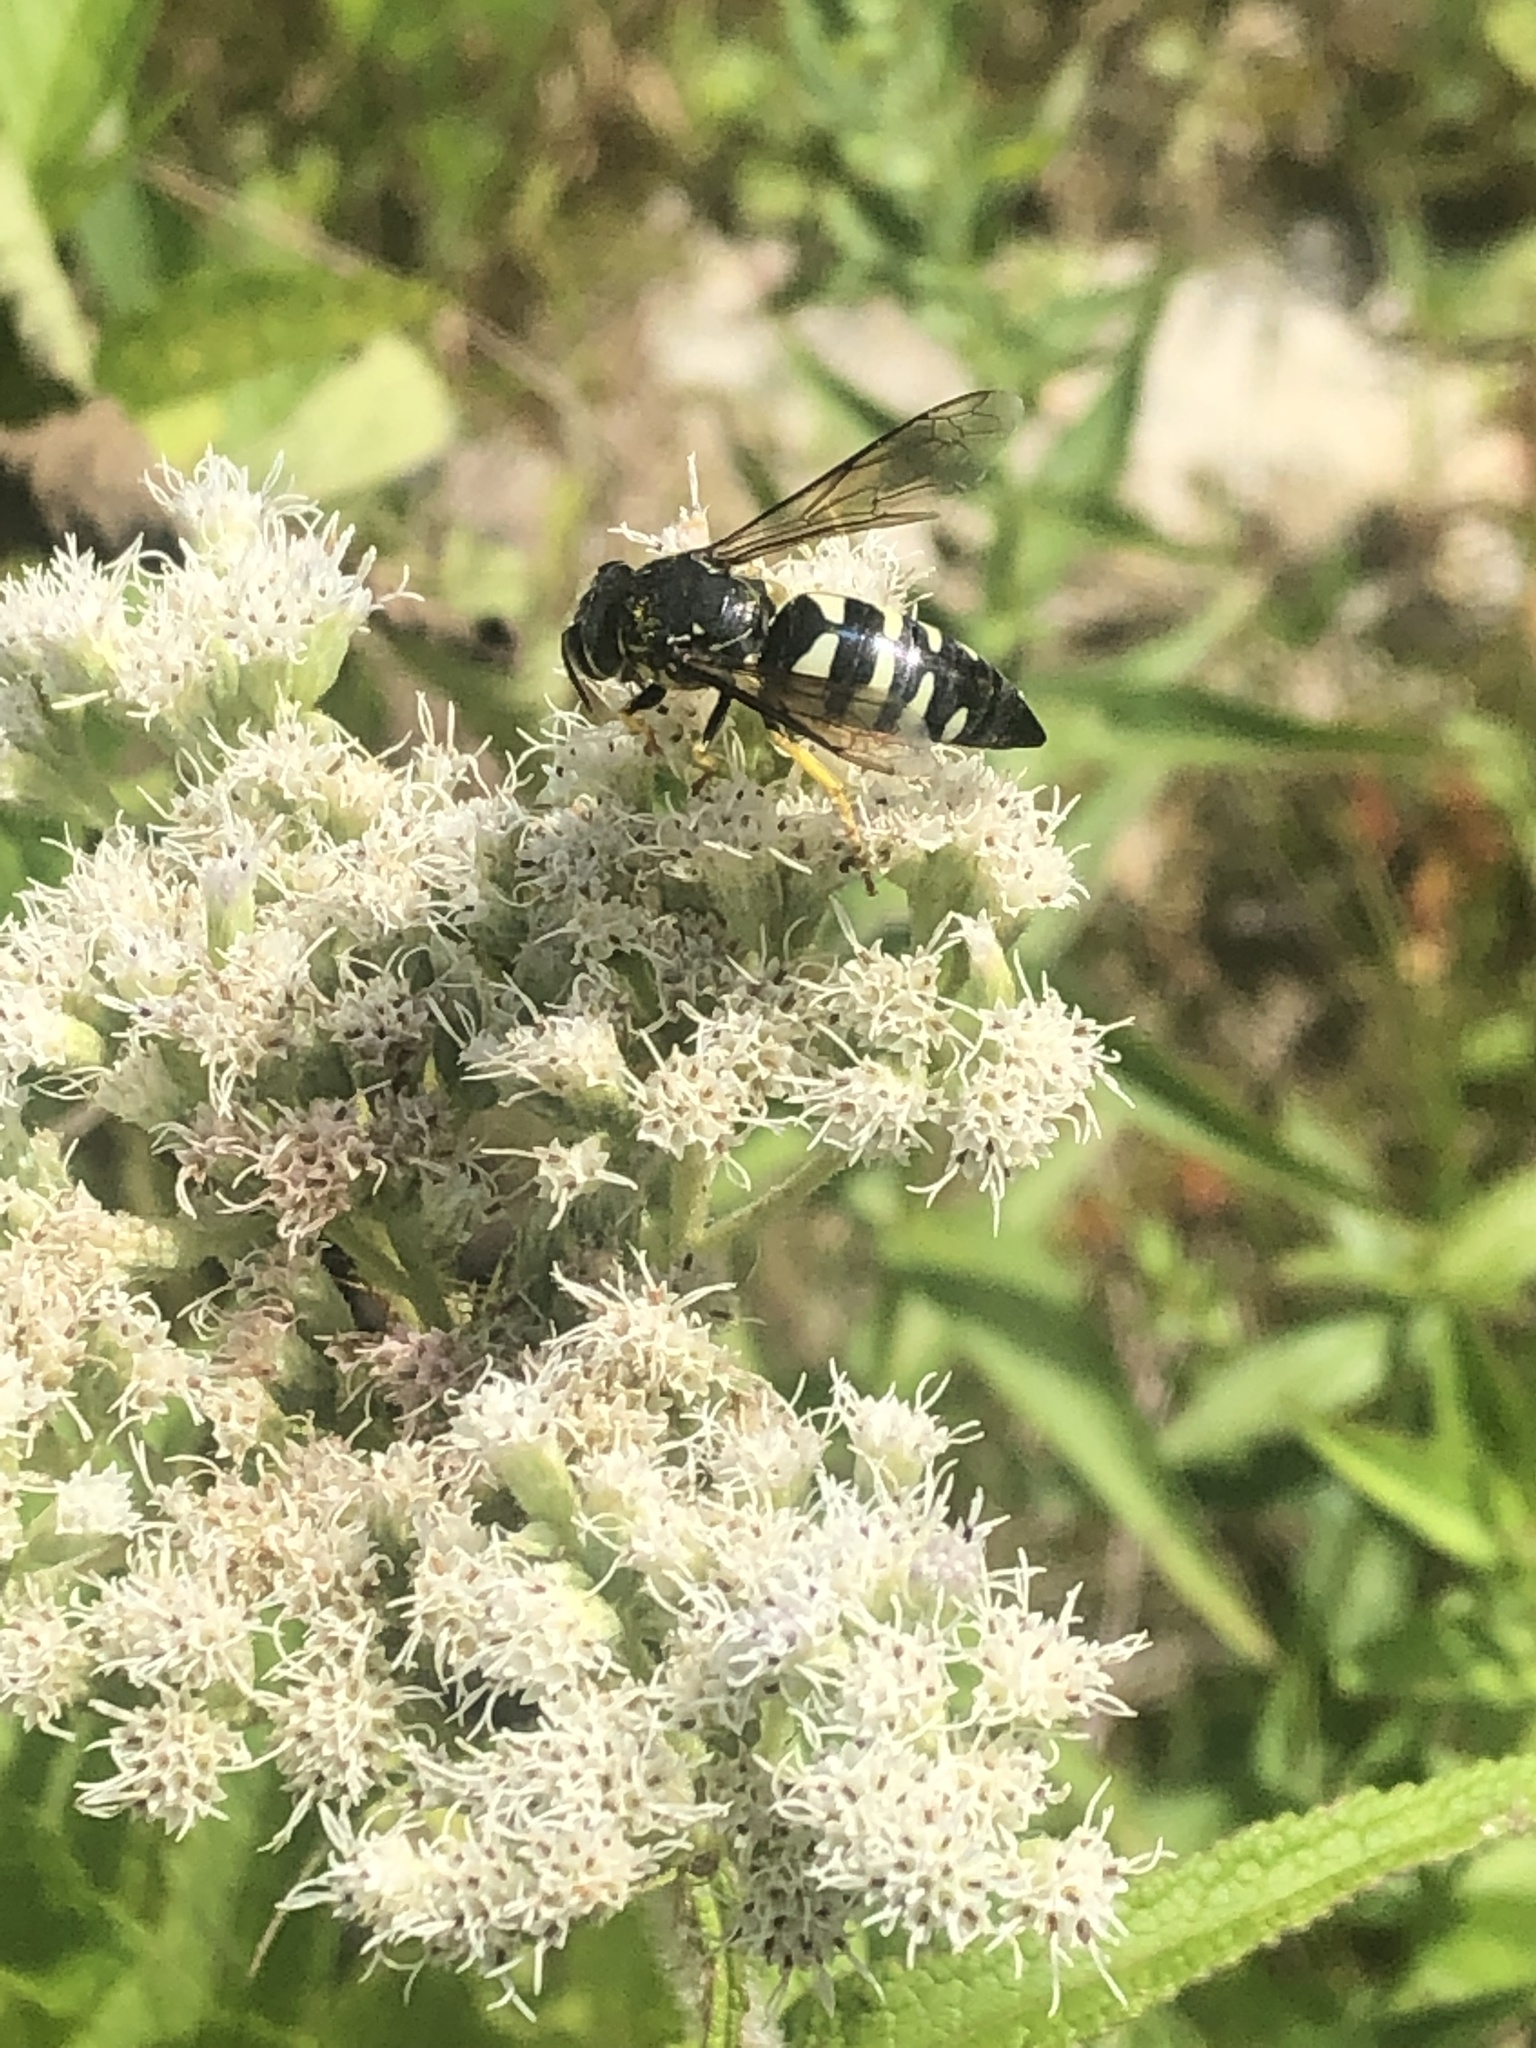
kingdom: Animalia
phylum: Arthropoda
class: Insecta
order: Hymenoptera
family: Crabronidae
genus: Bicyrtes
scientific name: Bicyrtes quadrifasciatus
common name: Four-banded stink bug hunter wasp
